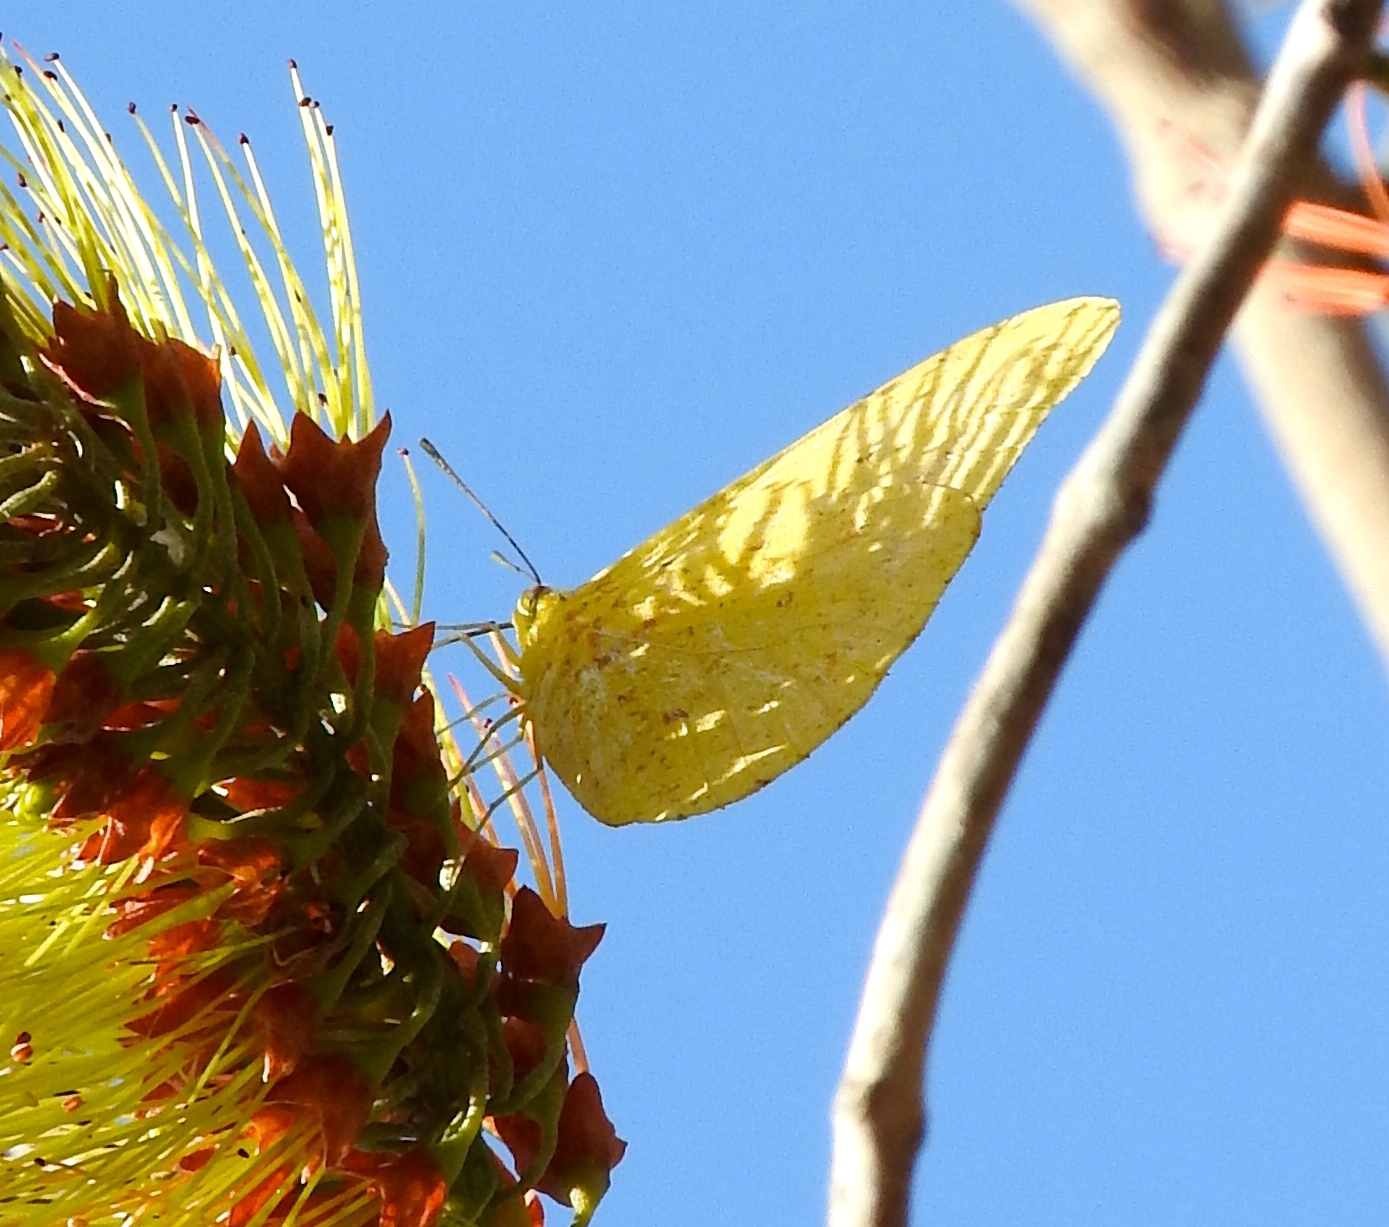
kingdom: Animalia
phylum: Arthropoda
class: Insecta
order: Lepidoptera
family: Pieridae
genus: Phoebis
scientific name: Phoebis agarithe
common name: Large orange sulphur
